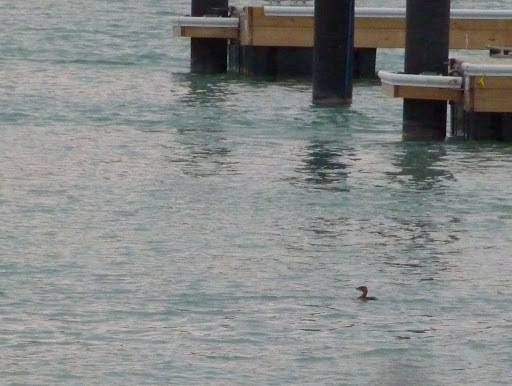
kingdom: Animalia
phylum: Chordata
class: Aves
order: Podicipediformes
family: Podicipedidae
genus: Podilymbus
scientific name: Podilymbus podiceps
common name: Pied-billed grebe
